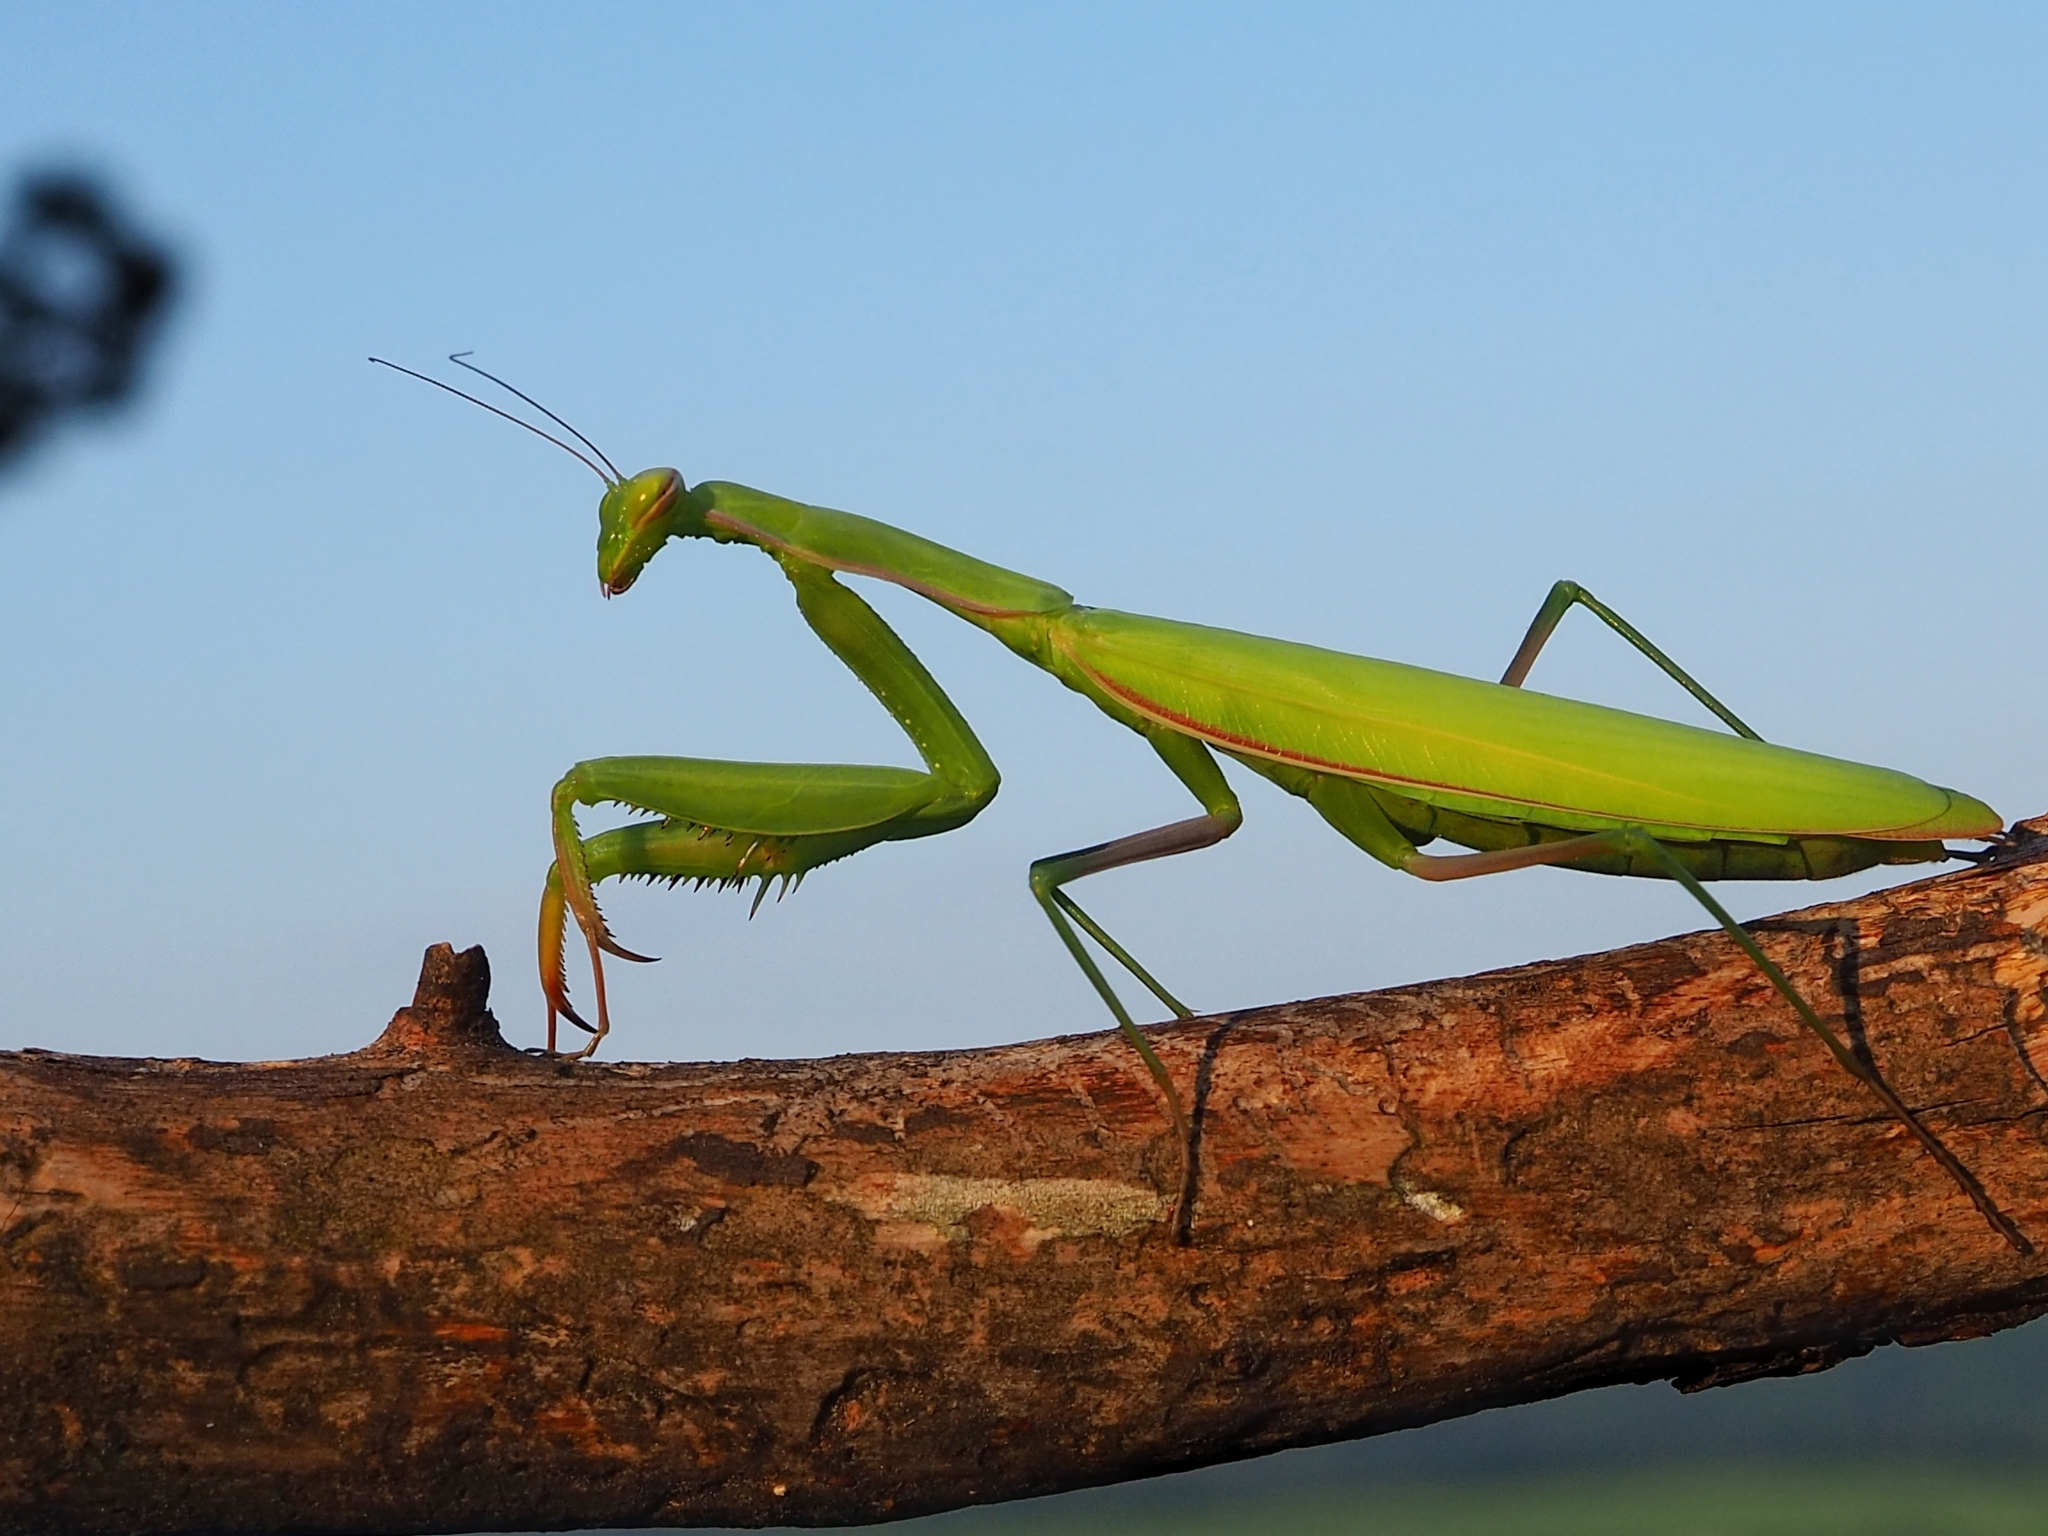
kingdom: Animalia
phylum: Arthropoda
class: Insecta
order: Mantodea
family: Mantidae
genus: Mantis
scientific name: Mantis religiosa
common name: Praying mantis
